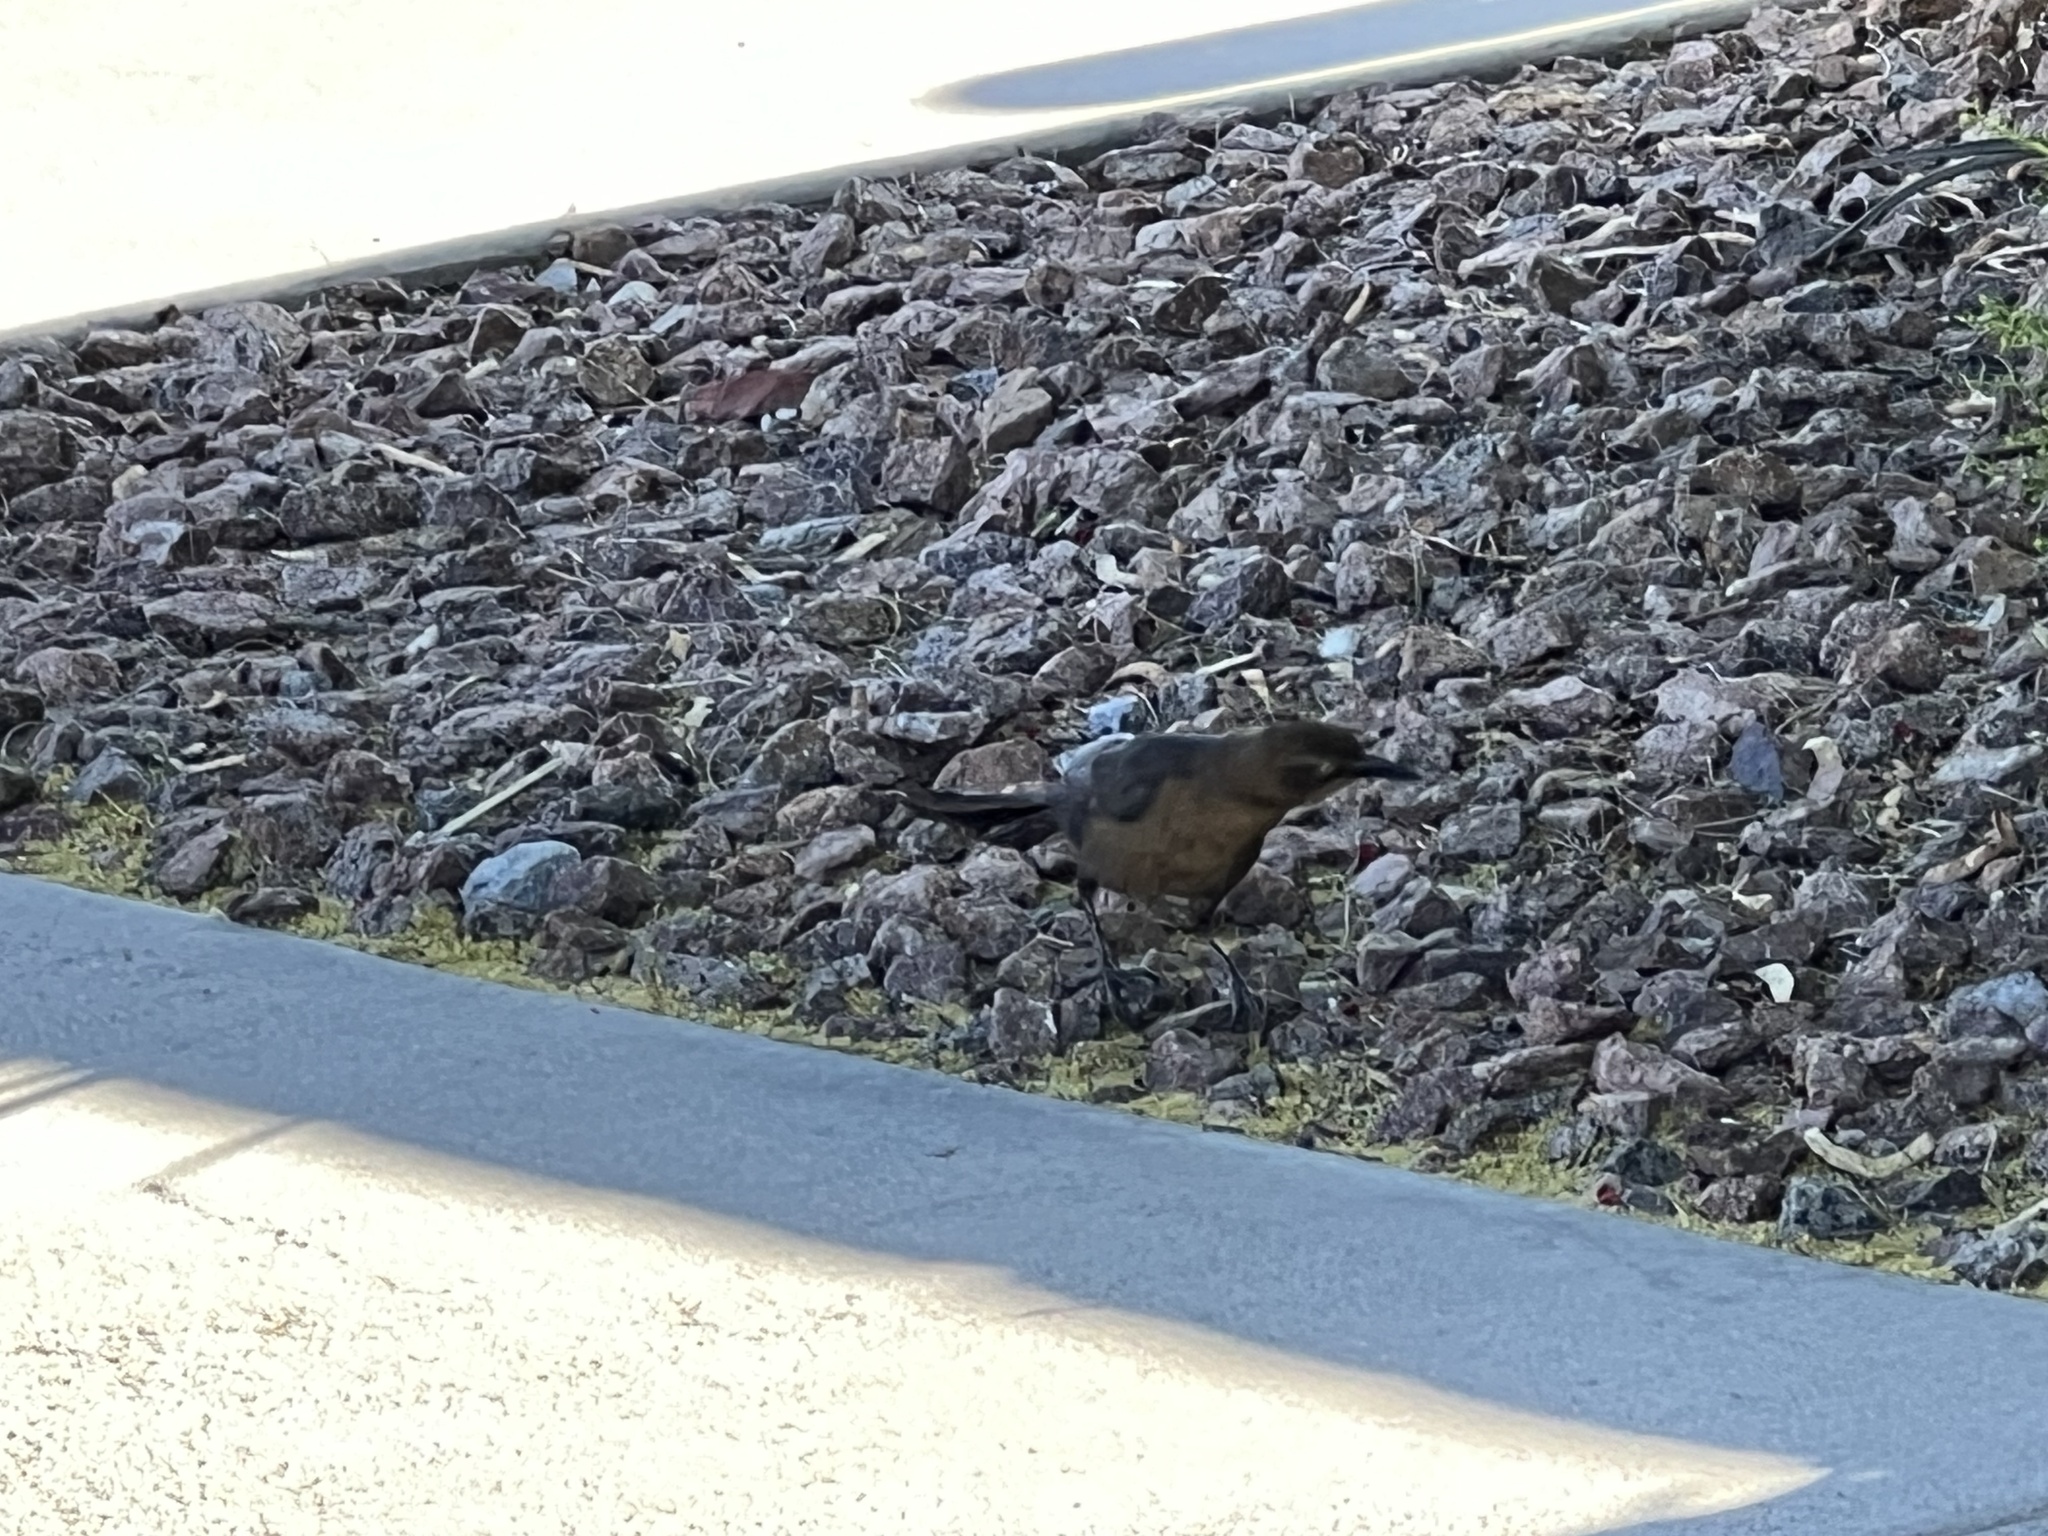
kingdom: Animalia
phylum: Chordata
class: Aves
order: Passeriformes
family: Icteridae
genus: Quiscalus
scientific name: Quiscalus mexicanus
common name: Great-tailed grackle
